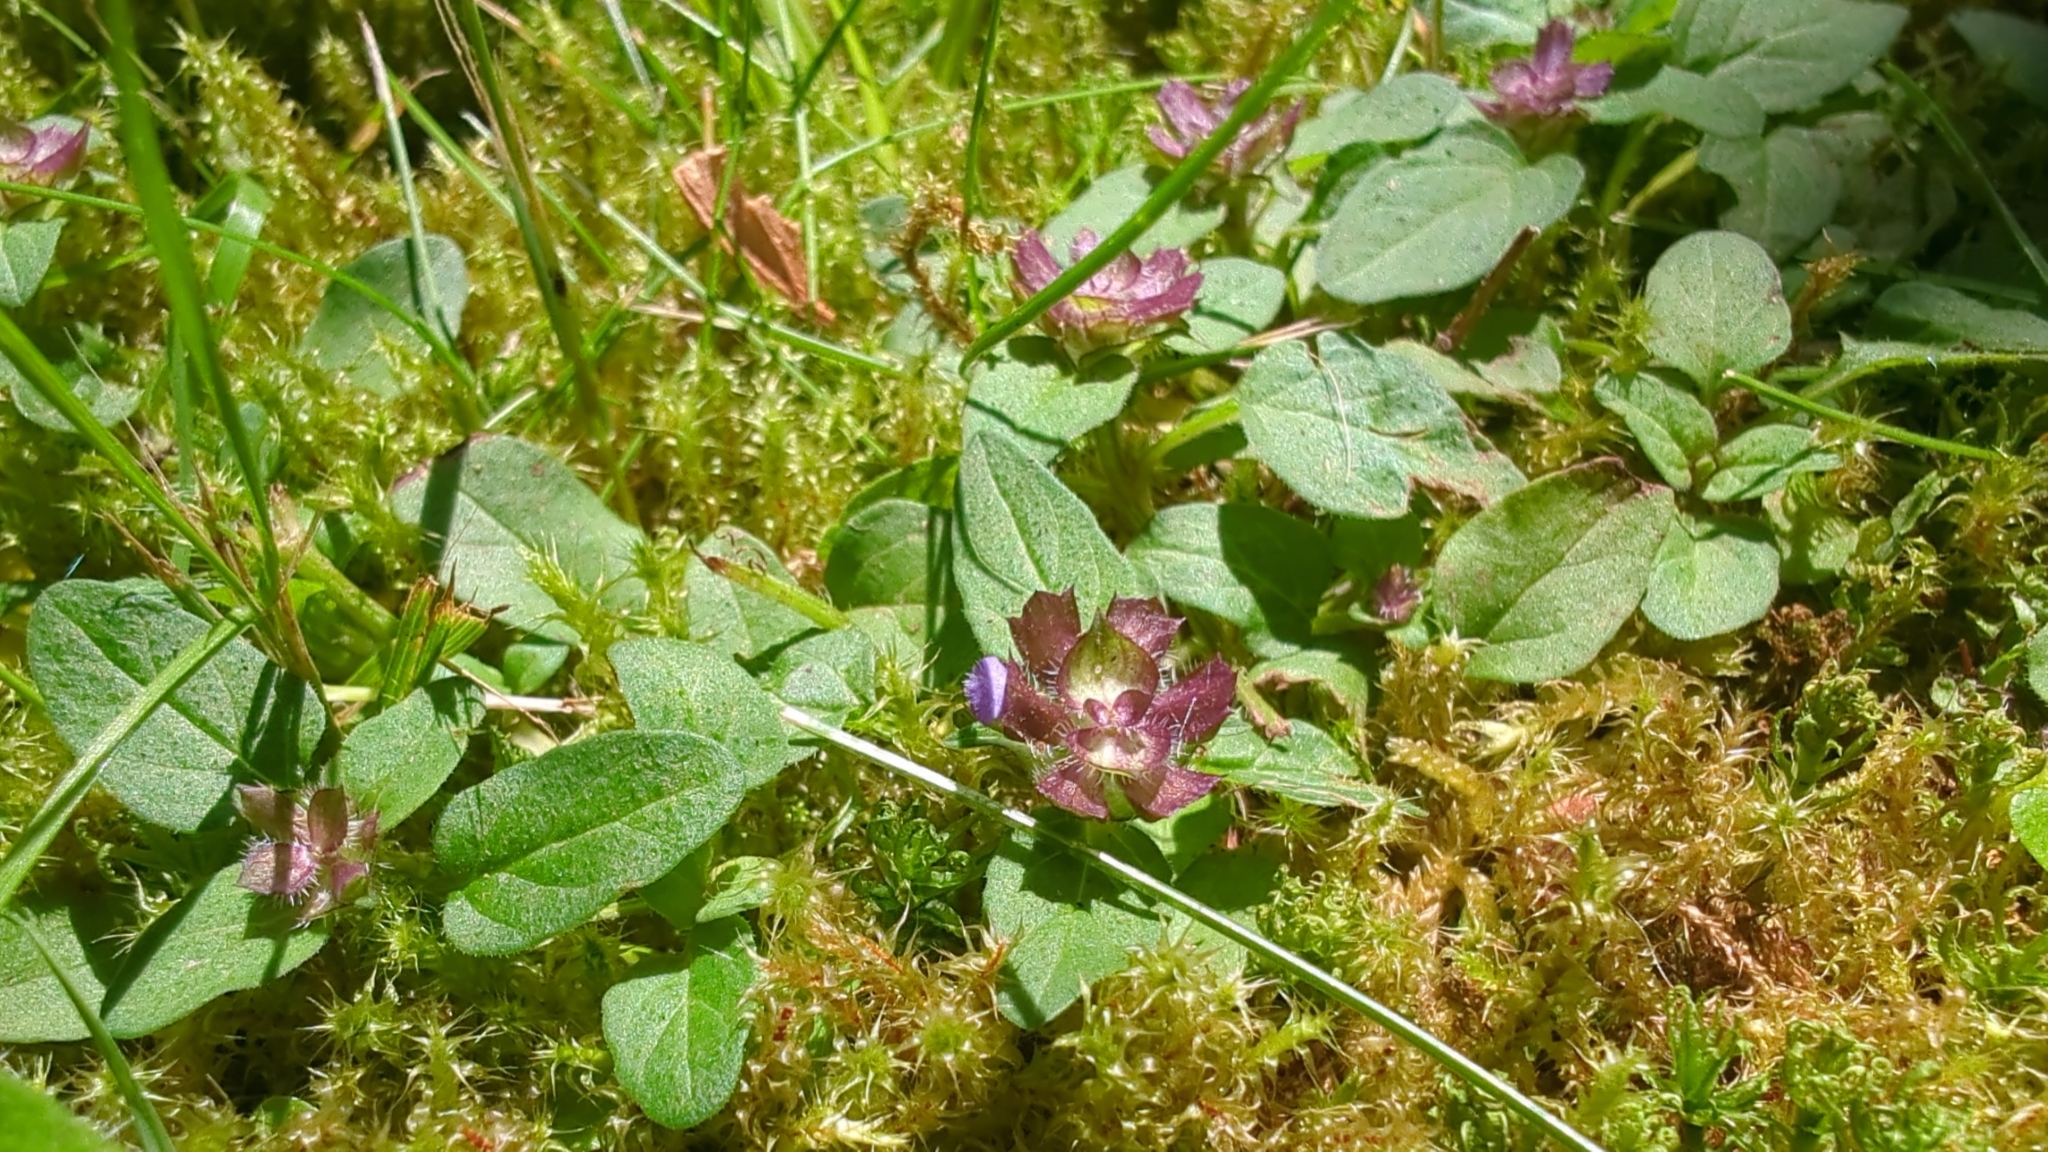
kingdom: Plantae
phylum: Tracheophyta
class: Magnoliopsida
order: Lamiales
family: Lamiaceae
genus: Prunella
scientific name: Prunella vulgaris
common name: Heal-all
